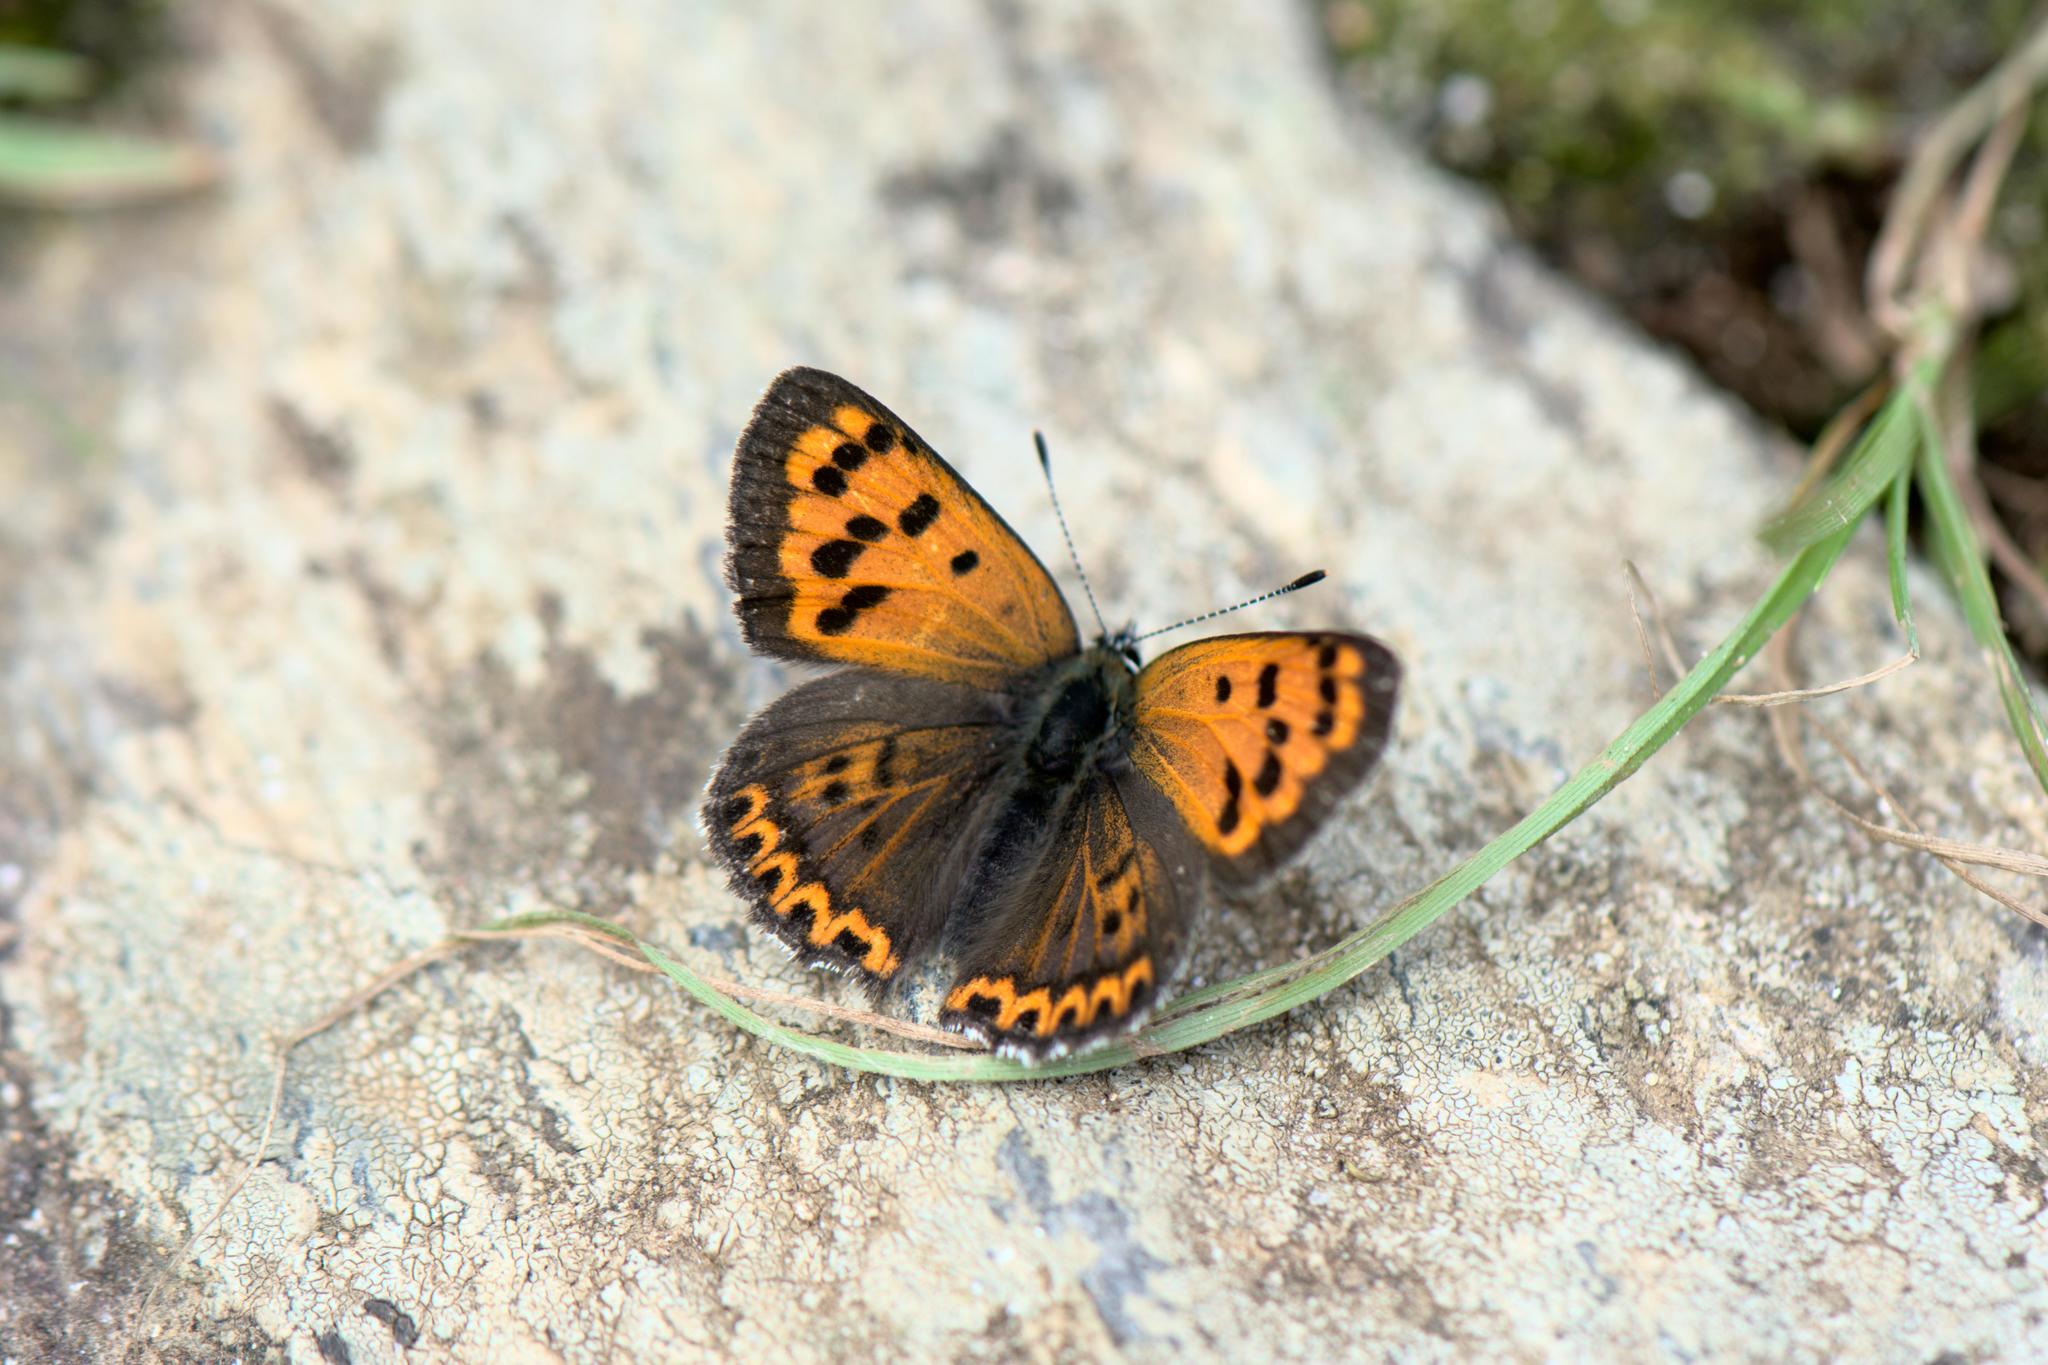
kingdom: Animalia
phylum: Arthropoda
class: Insecta
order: Lepidoptera
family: Lycaenidae
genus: Lycaena
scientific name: Lycaena panava
